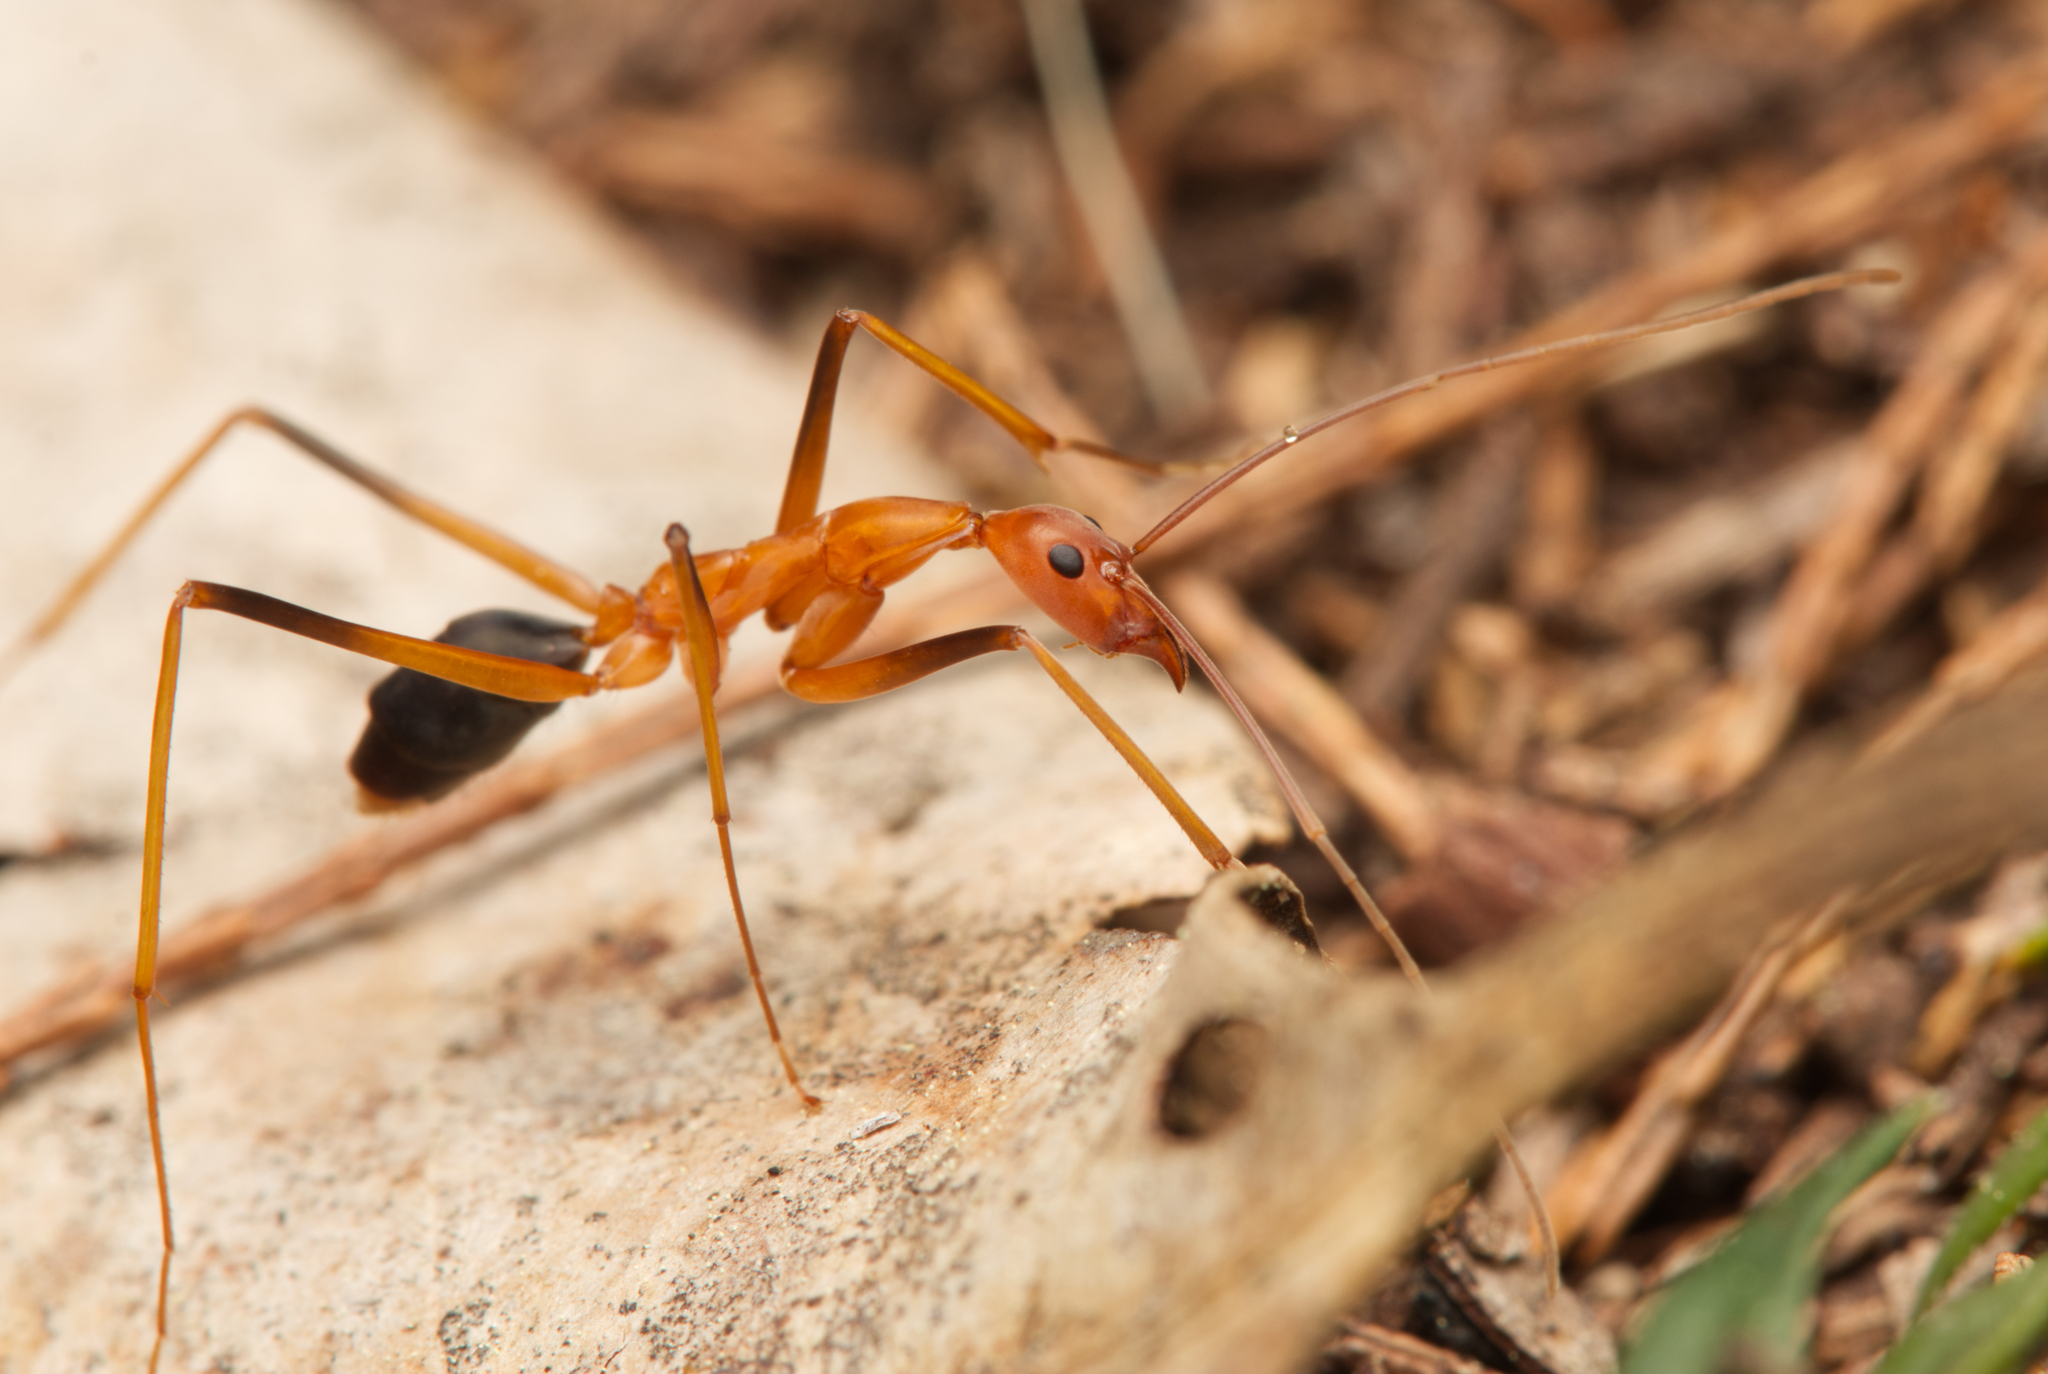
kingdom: Animalia
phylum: Arthropoda
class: Insecta
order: Hymenoptera
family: Formicidae
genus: Leptomyrmex
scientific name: Leptomyrmex rufipes
